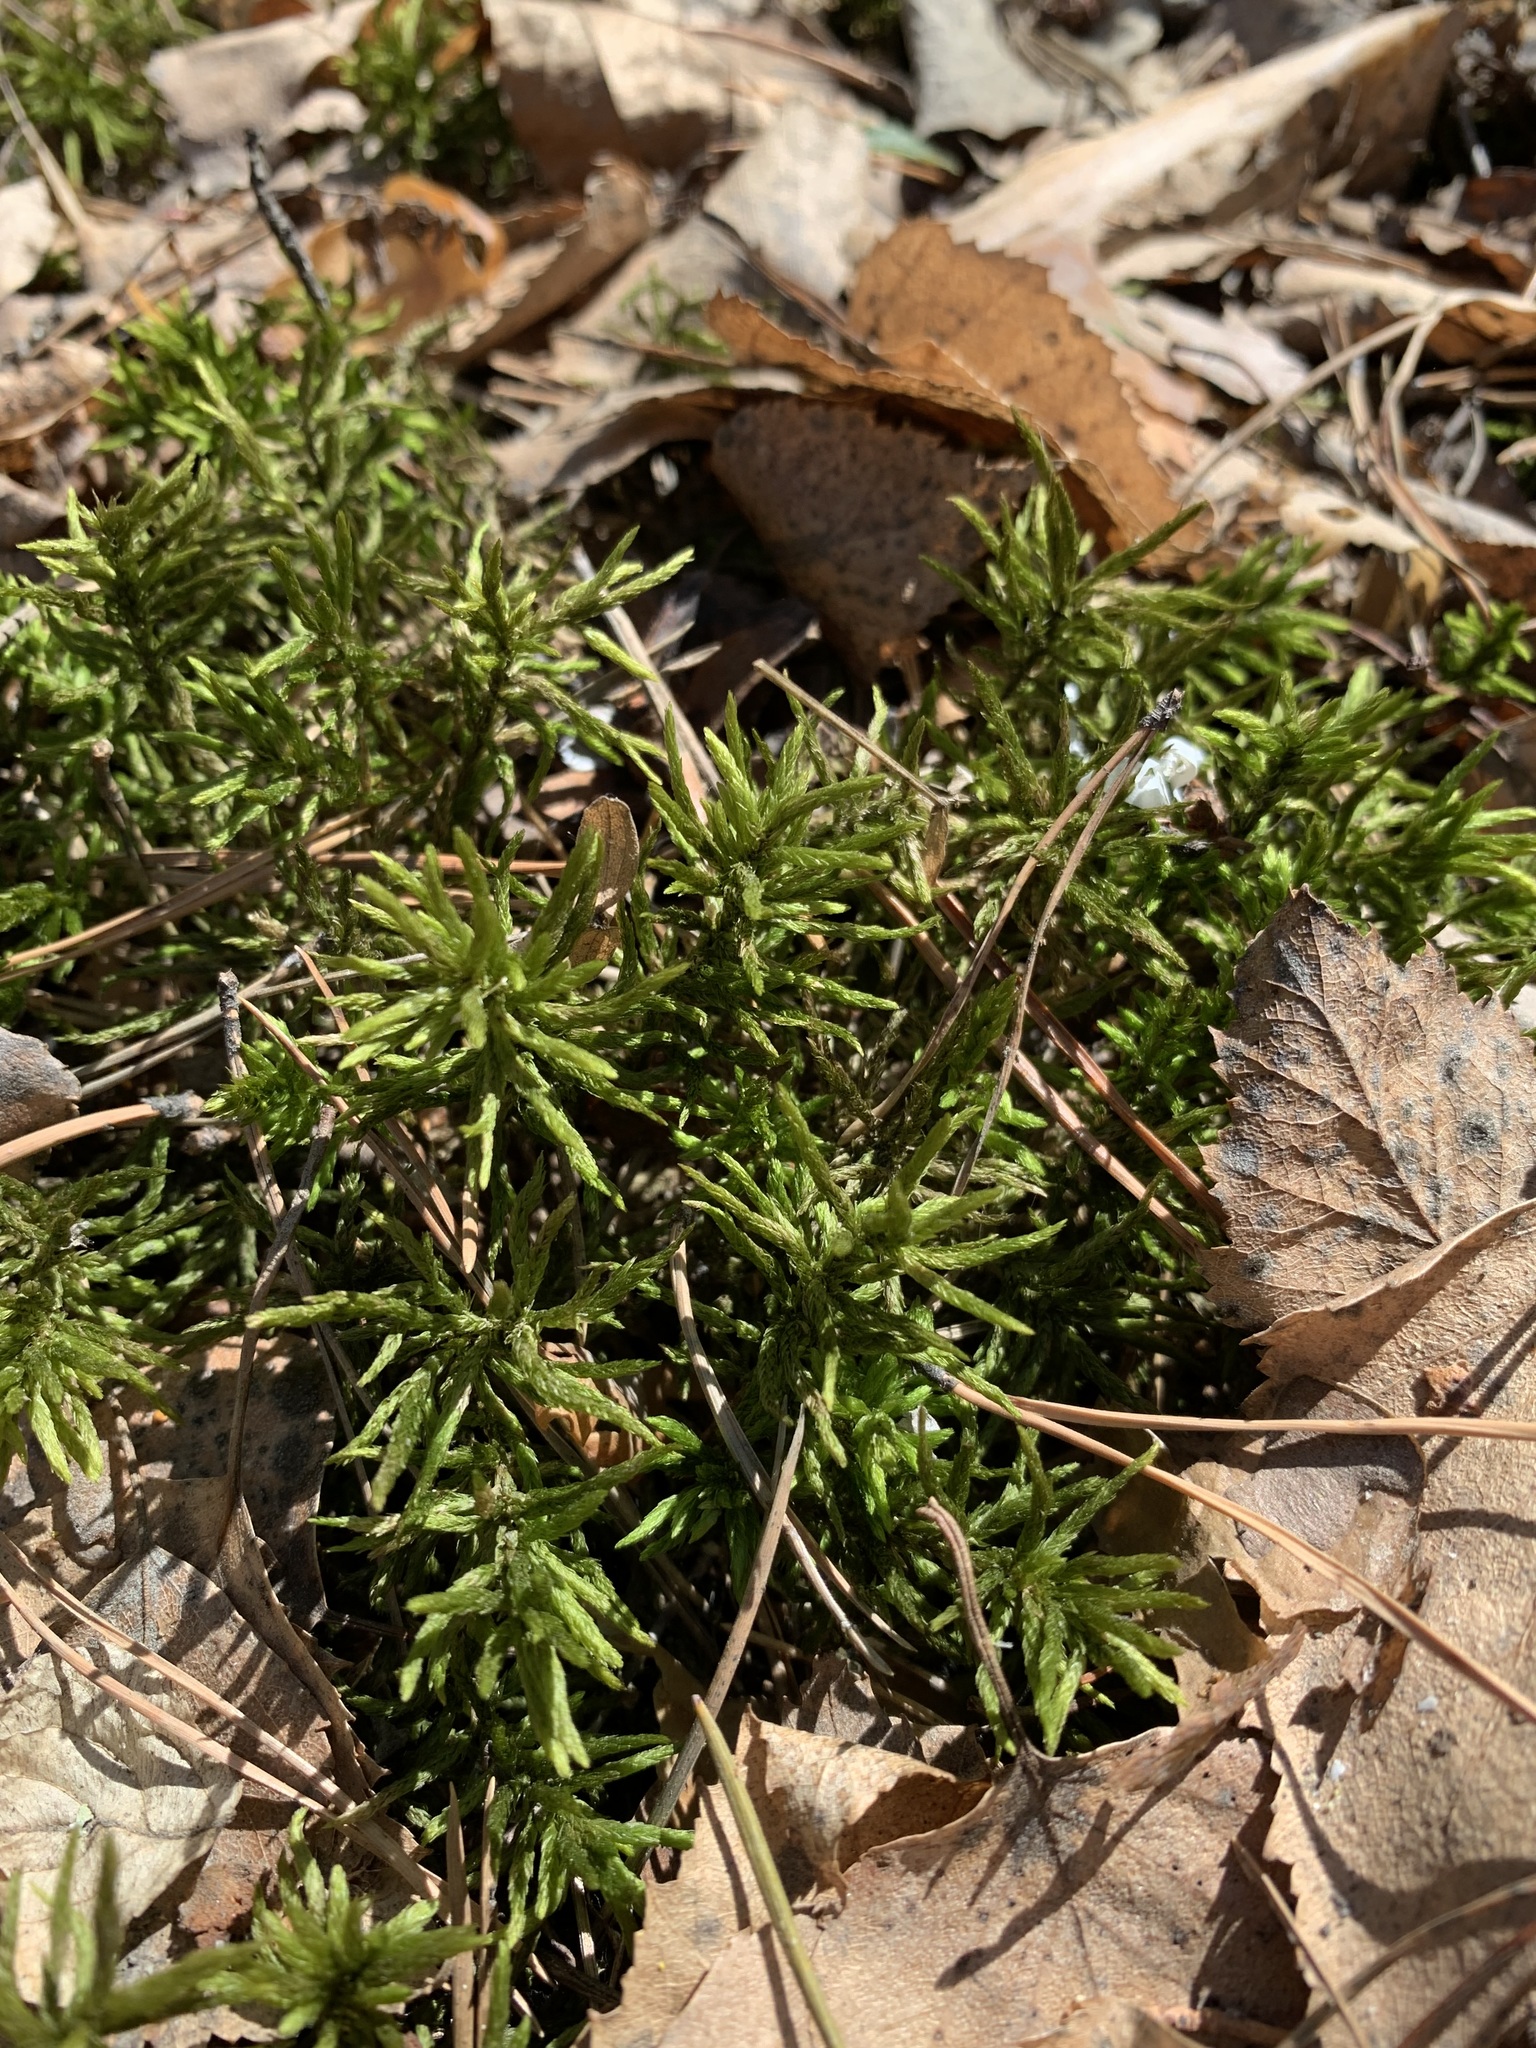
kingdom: Plantae
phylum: Bryophyta
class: Bryopsida
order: Hypnales
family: Climaciaceae
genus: Climacium
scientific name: Climacium dendroides
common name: Northern tree moss
